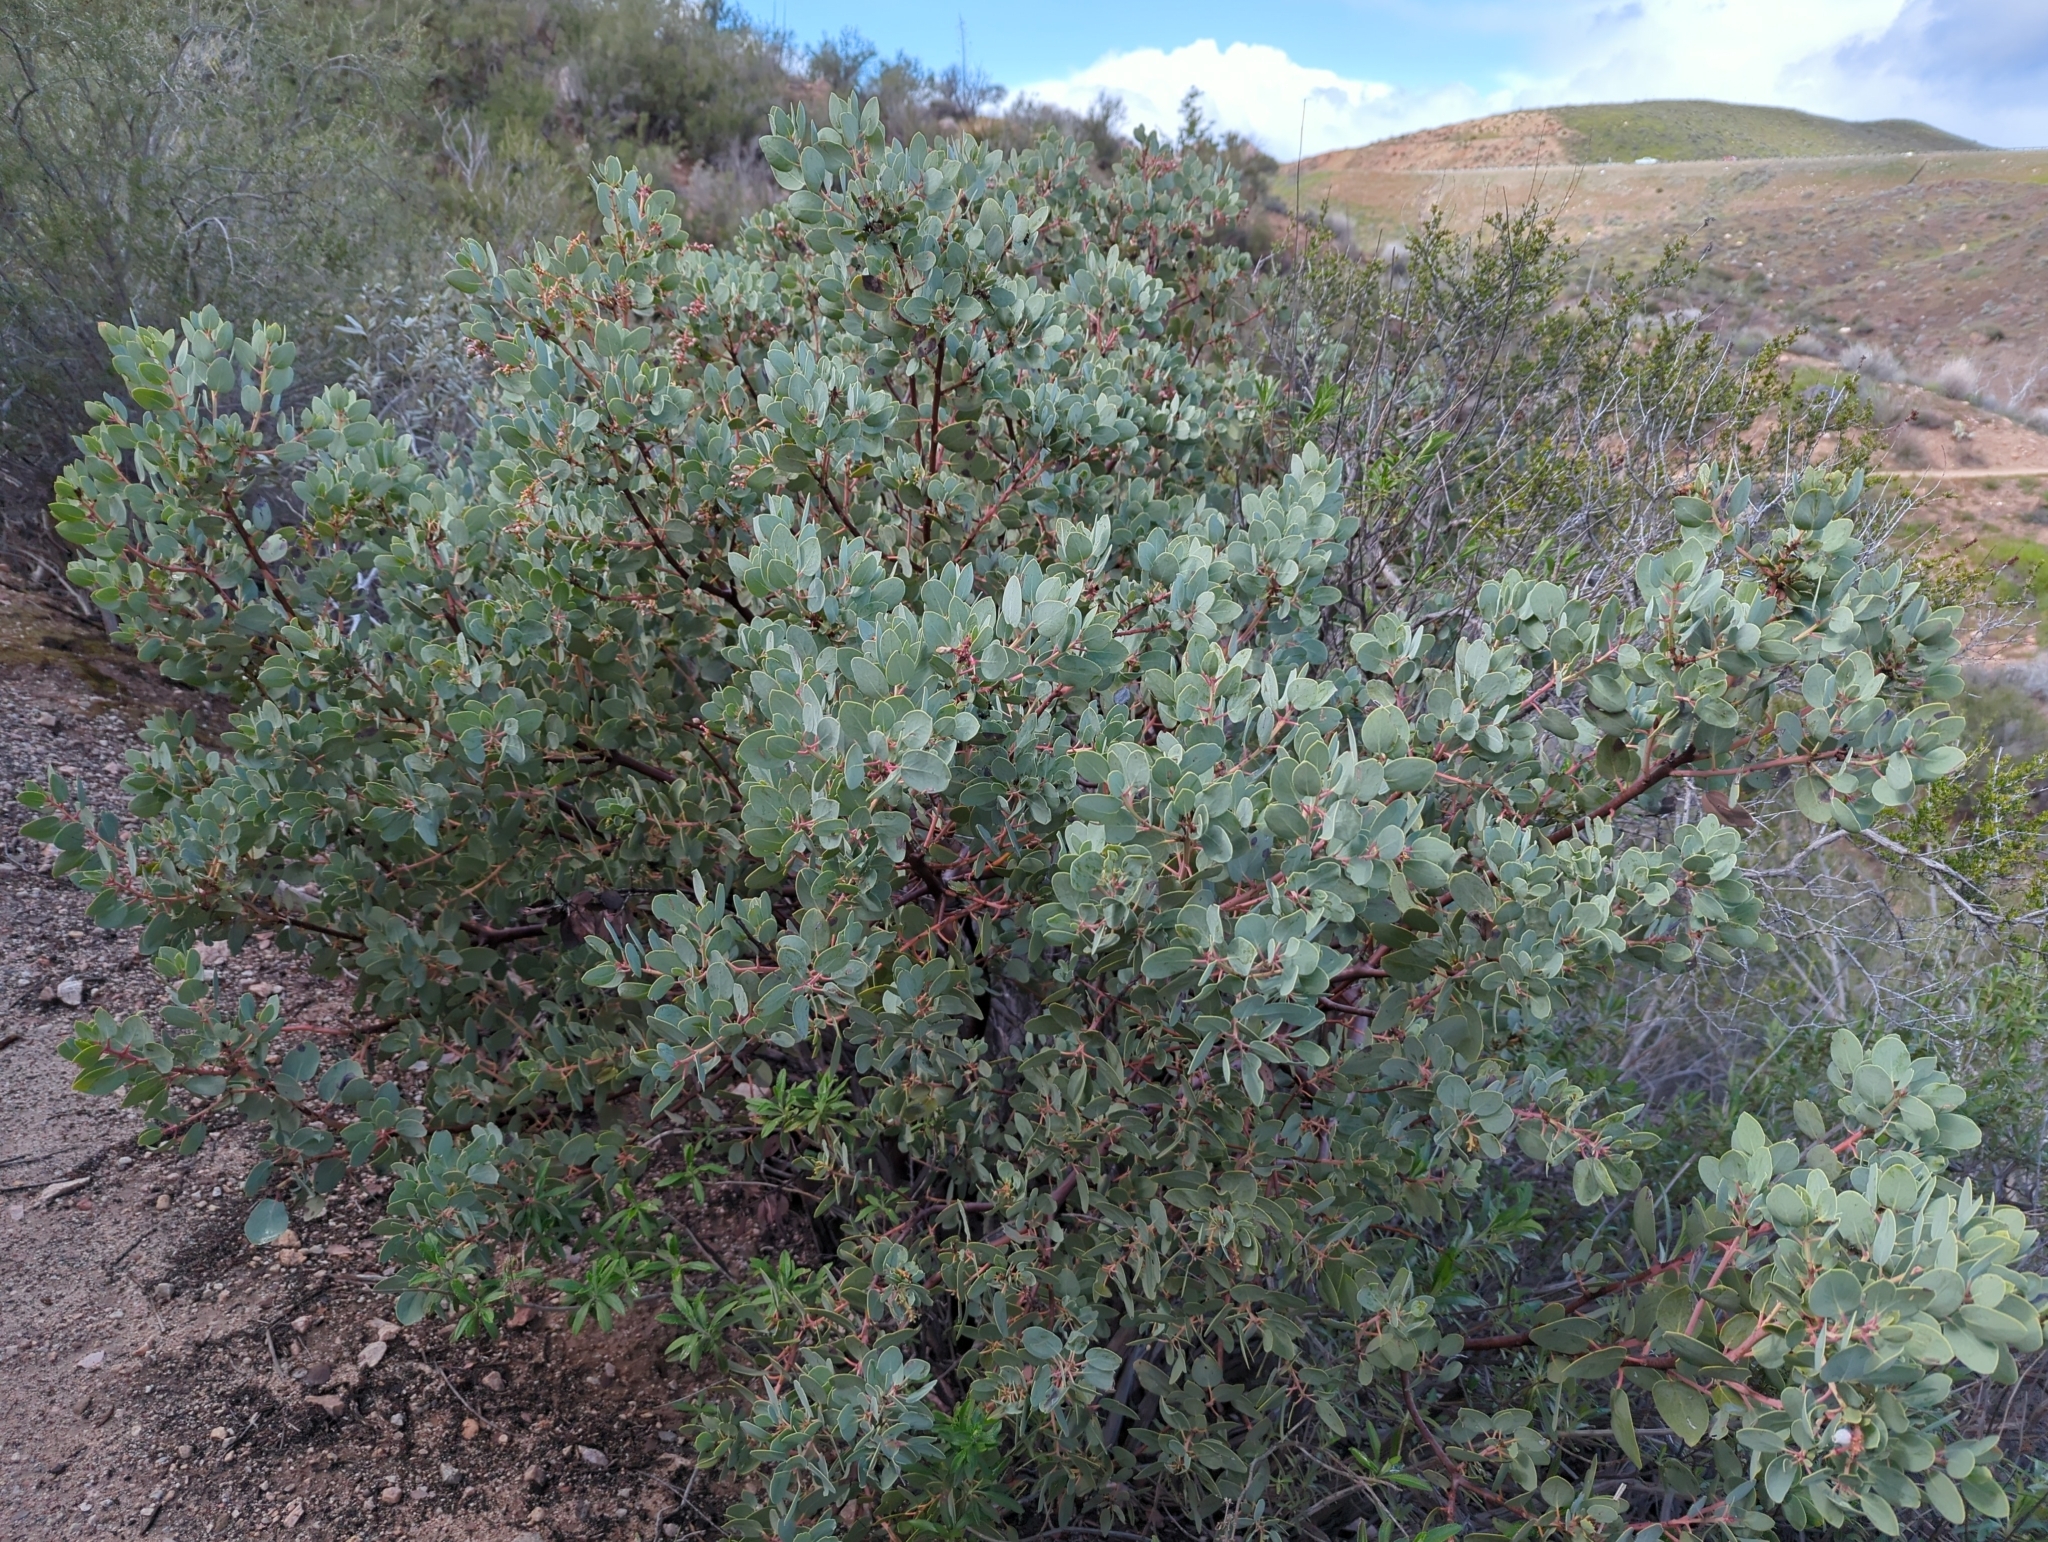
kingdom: Plantae
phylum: Tracheophyta
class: Magnoliopsida
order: Ericales
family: Ericaceae
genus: Arctostaphylos
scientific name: Arctostaphylos glauca
